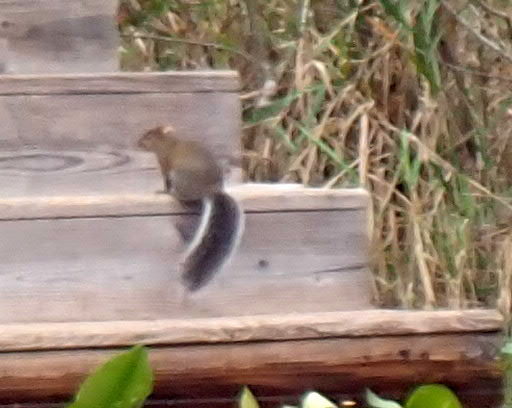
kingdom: Animalia
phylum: Chordata
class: Mammalia
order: Rodentia
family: Sciuridae
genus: Sciurus
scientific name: Sciurus carolinensis
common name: Eastern gray squirrel
